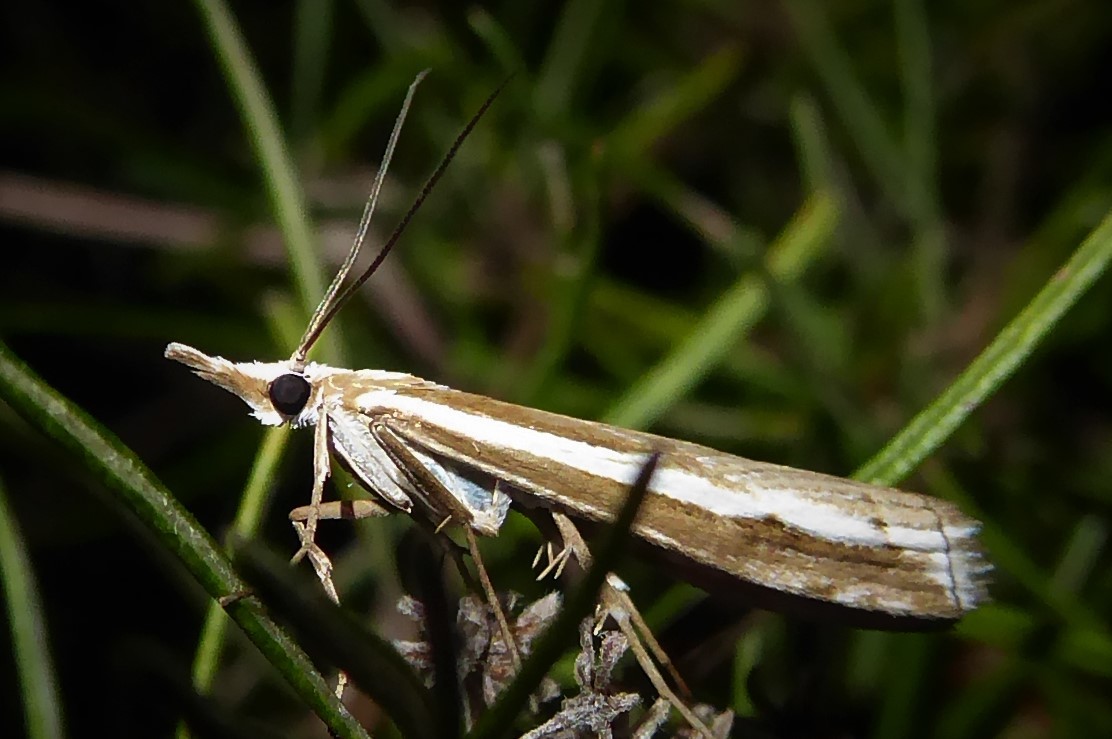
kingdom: Animalia
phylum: Arthropoda
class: Insecta
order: Lepidoptera
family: Crambidae
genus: Orocrambus
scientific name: Orocrambus vittellus
